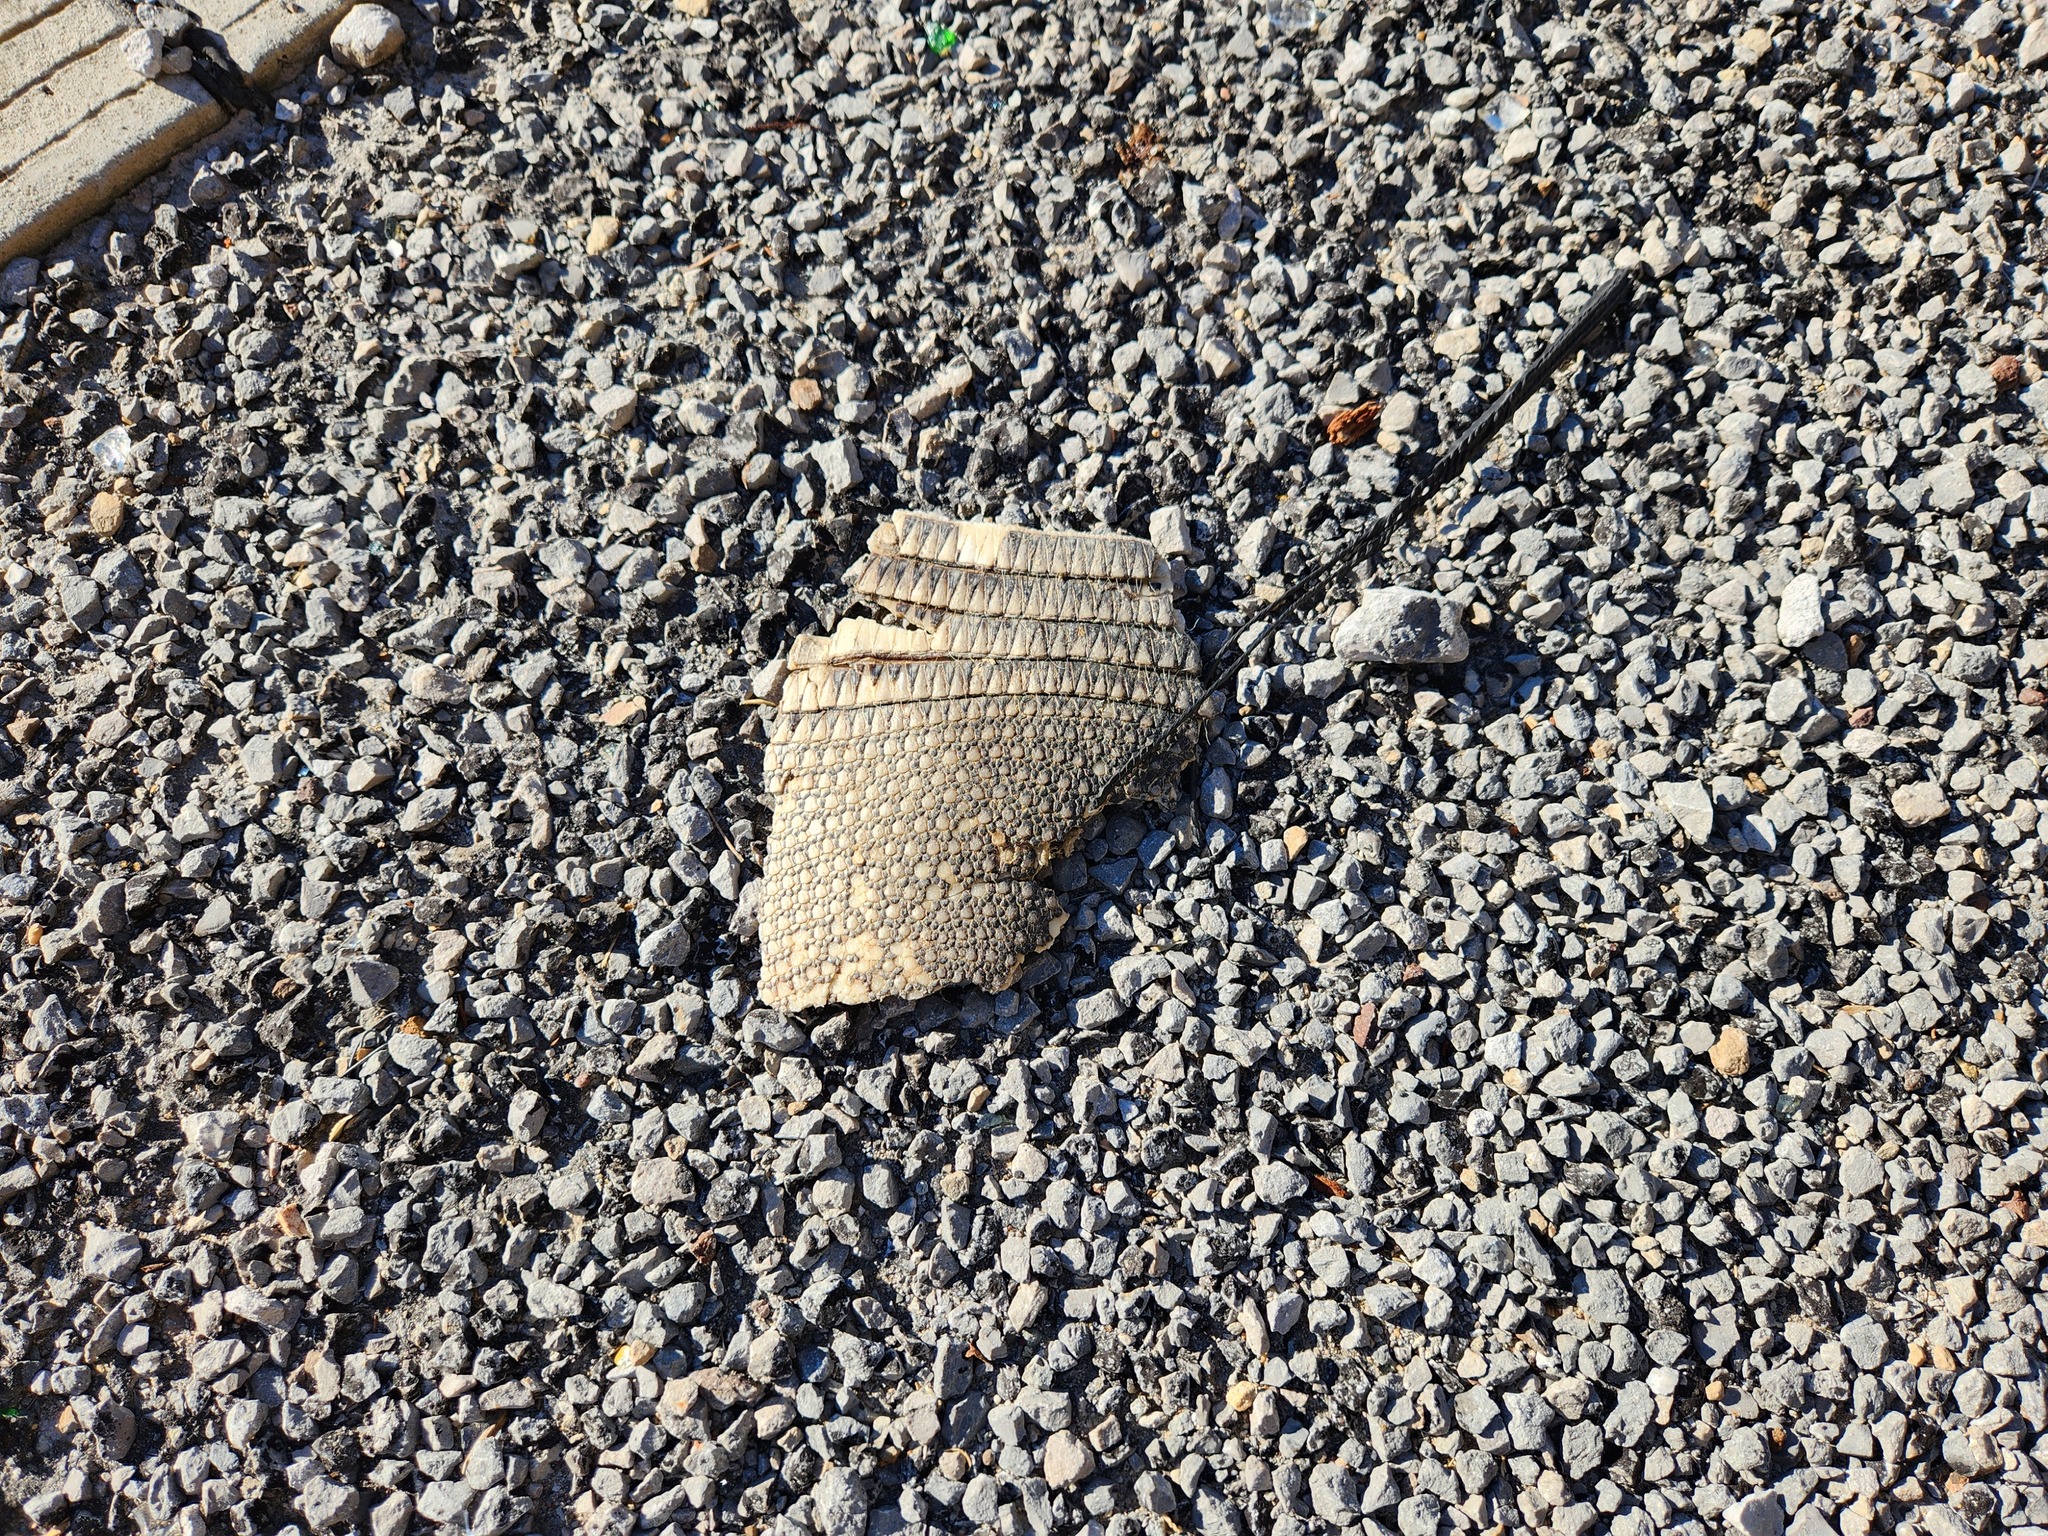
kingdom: Animalia
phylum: Chordata
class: Mammalia
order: Cingulata
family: Dasypodidae
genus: Dasypus
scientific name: Dasypus novemcinctus
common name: Nine-banded armadillo
